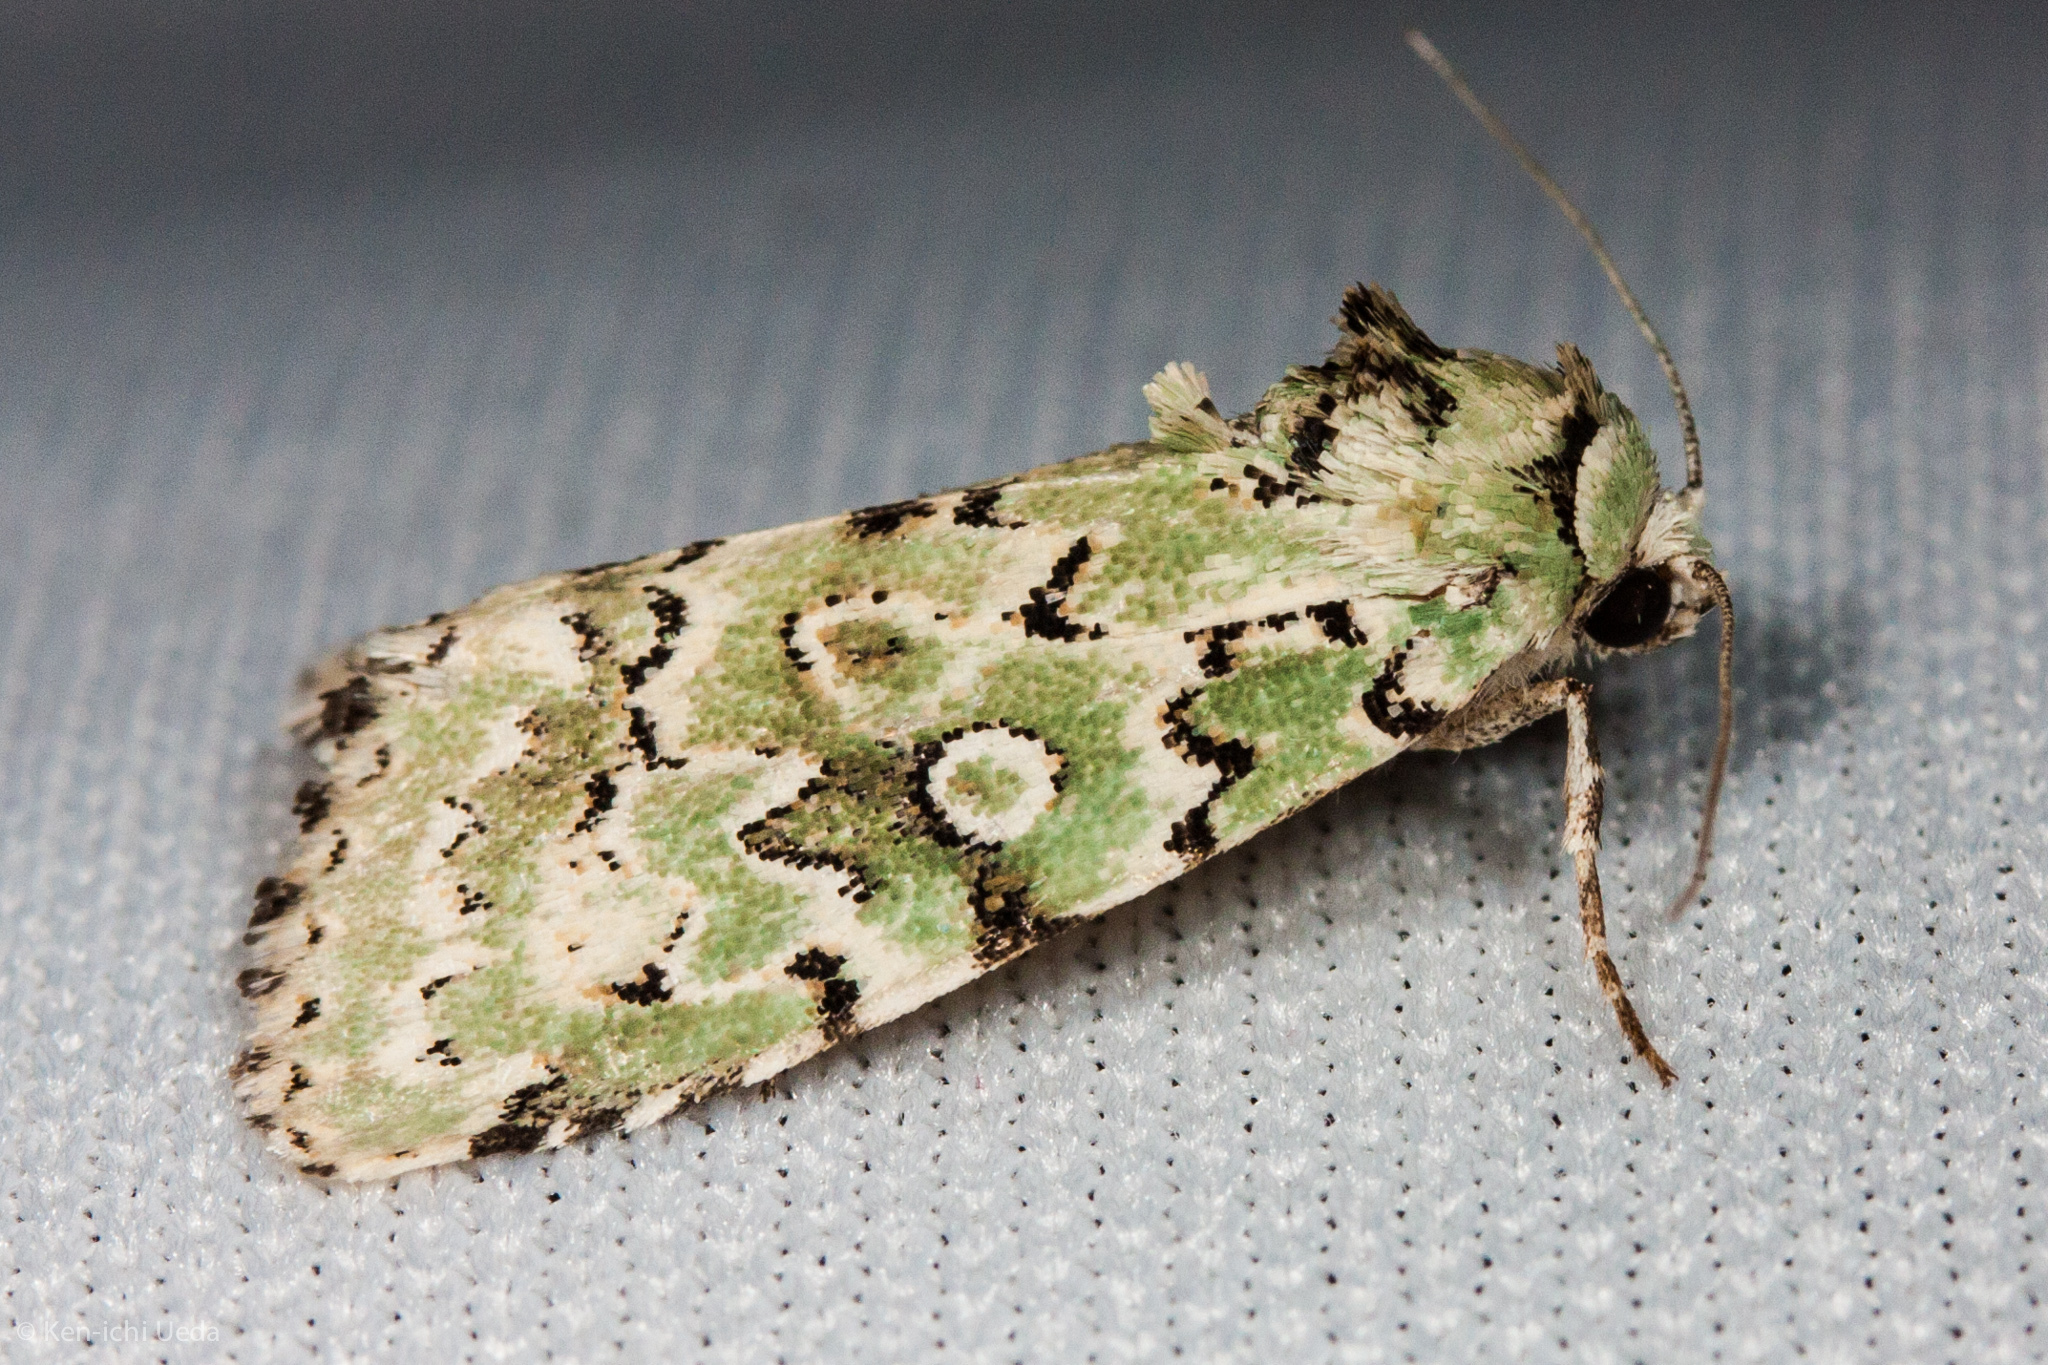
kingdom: Animalia
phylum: Arthropoda
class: Insecta
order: Lepidoptera
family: Noctuidae
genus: Bryolymnia
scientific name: Bryolymnia viridata
